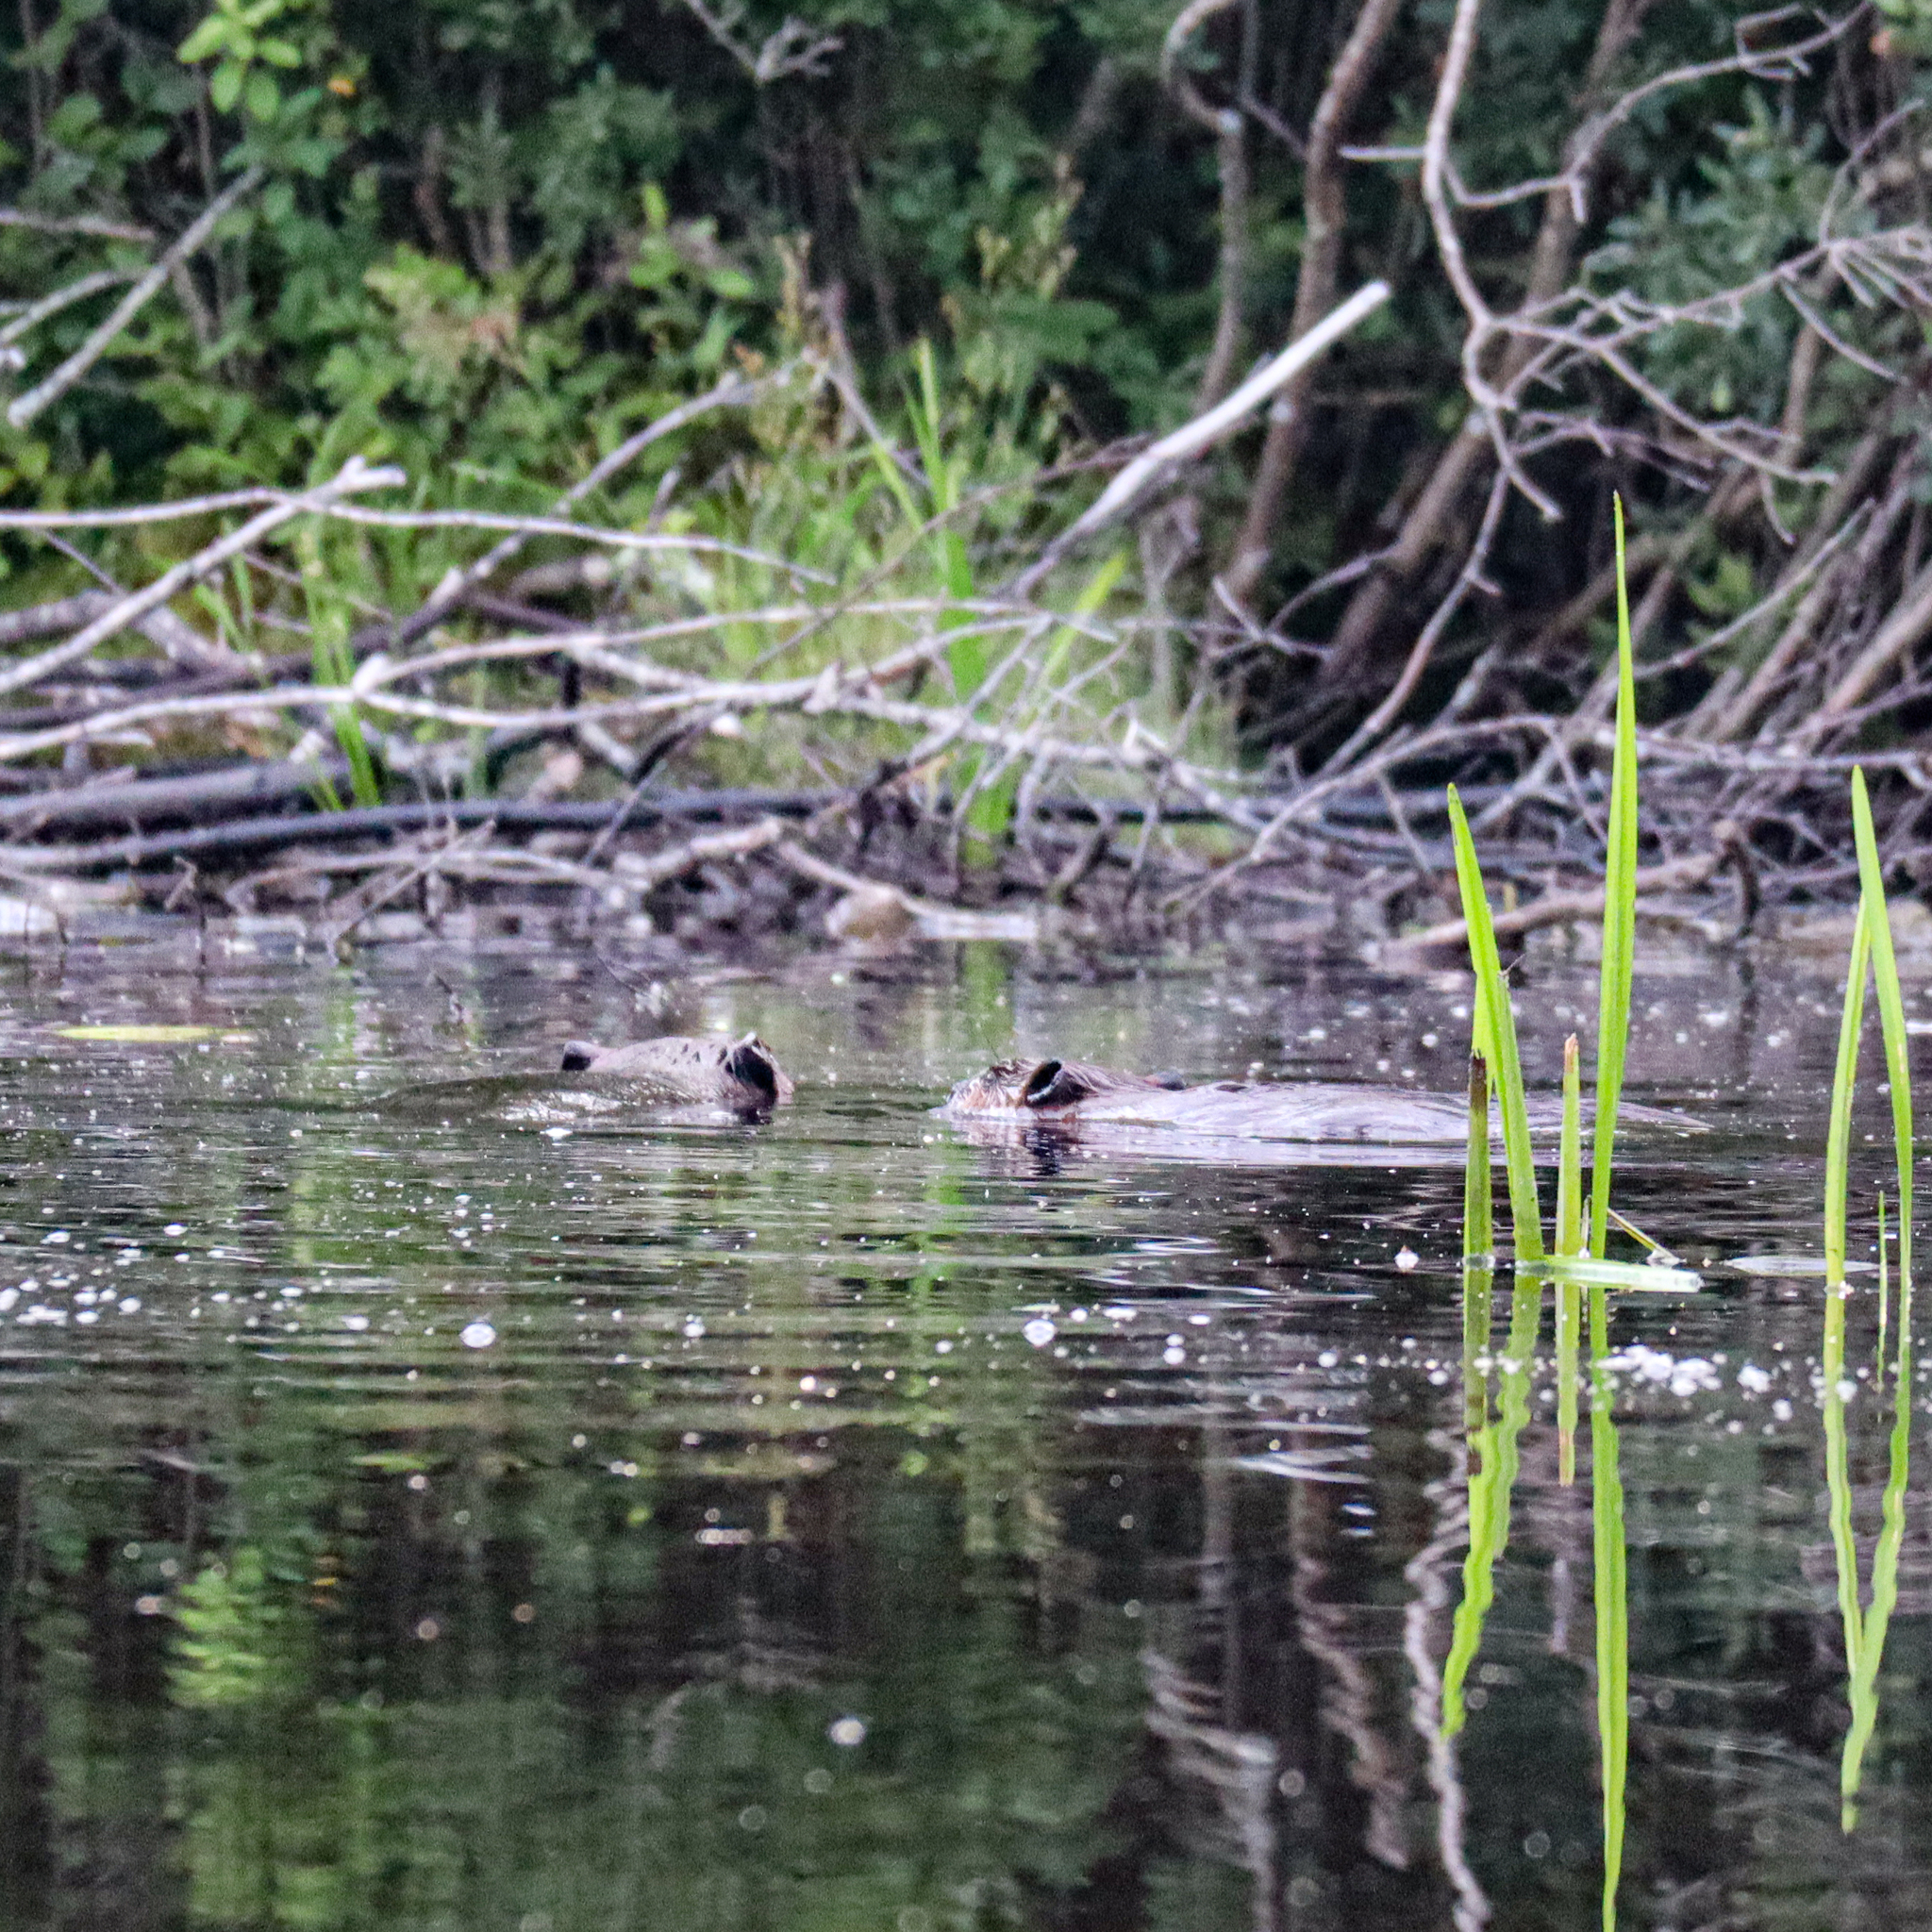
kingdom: Animalia
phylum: Chordata
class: Mammalia
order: Rodentia
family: Castoridae
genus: Castor
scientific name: Castor canadensis
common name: American beaver
